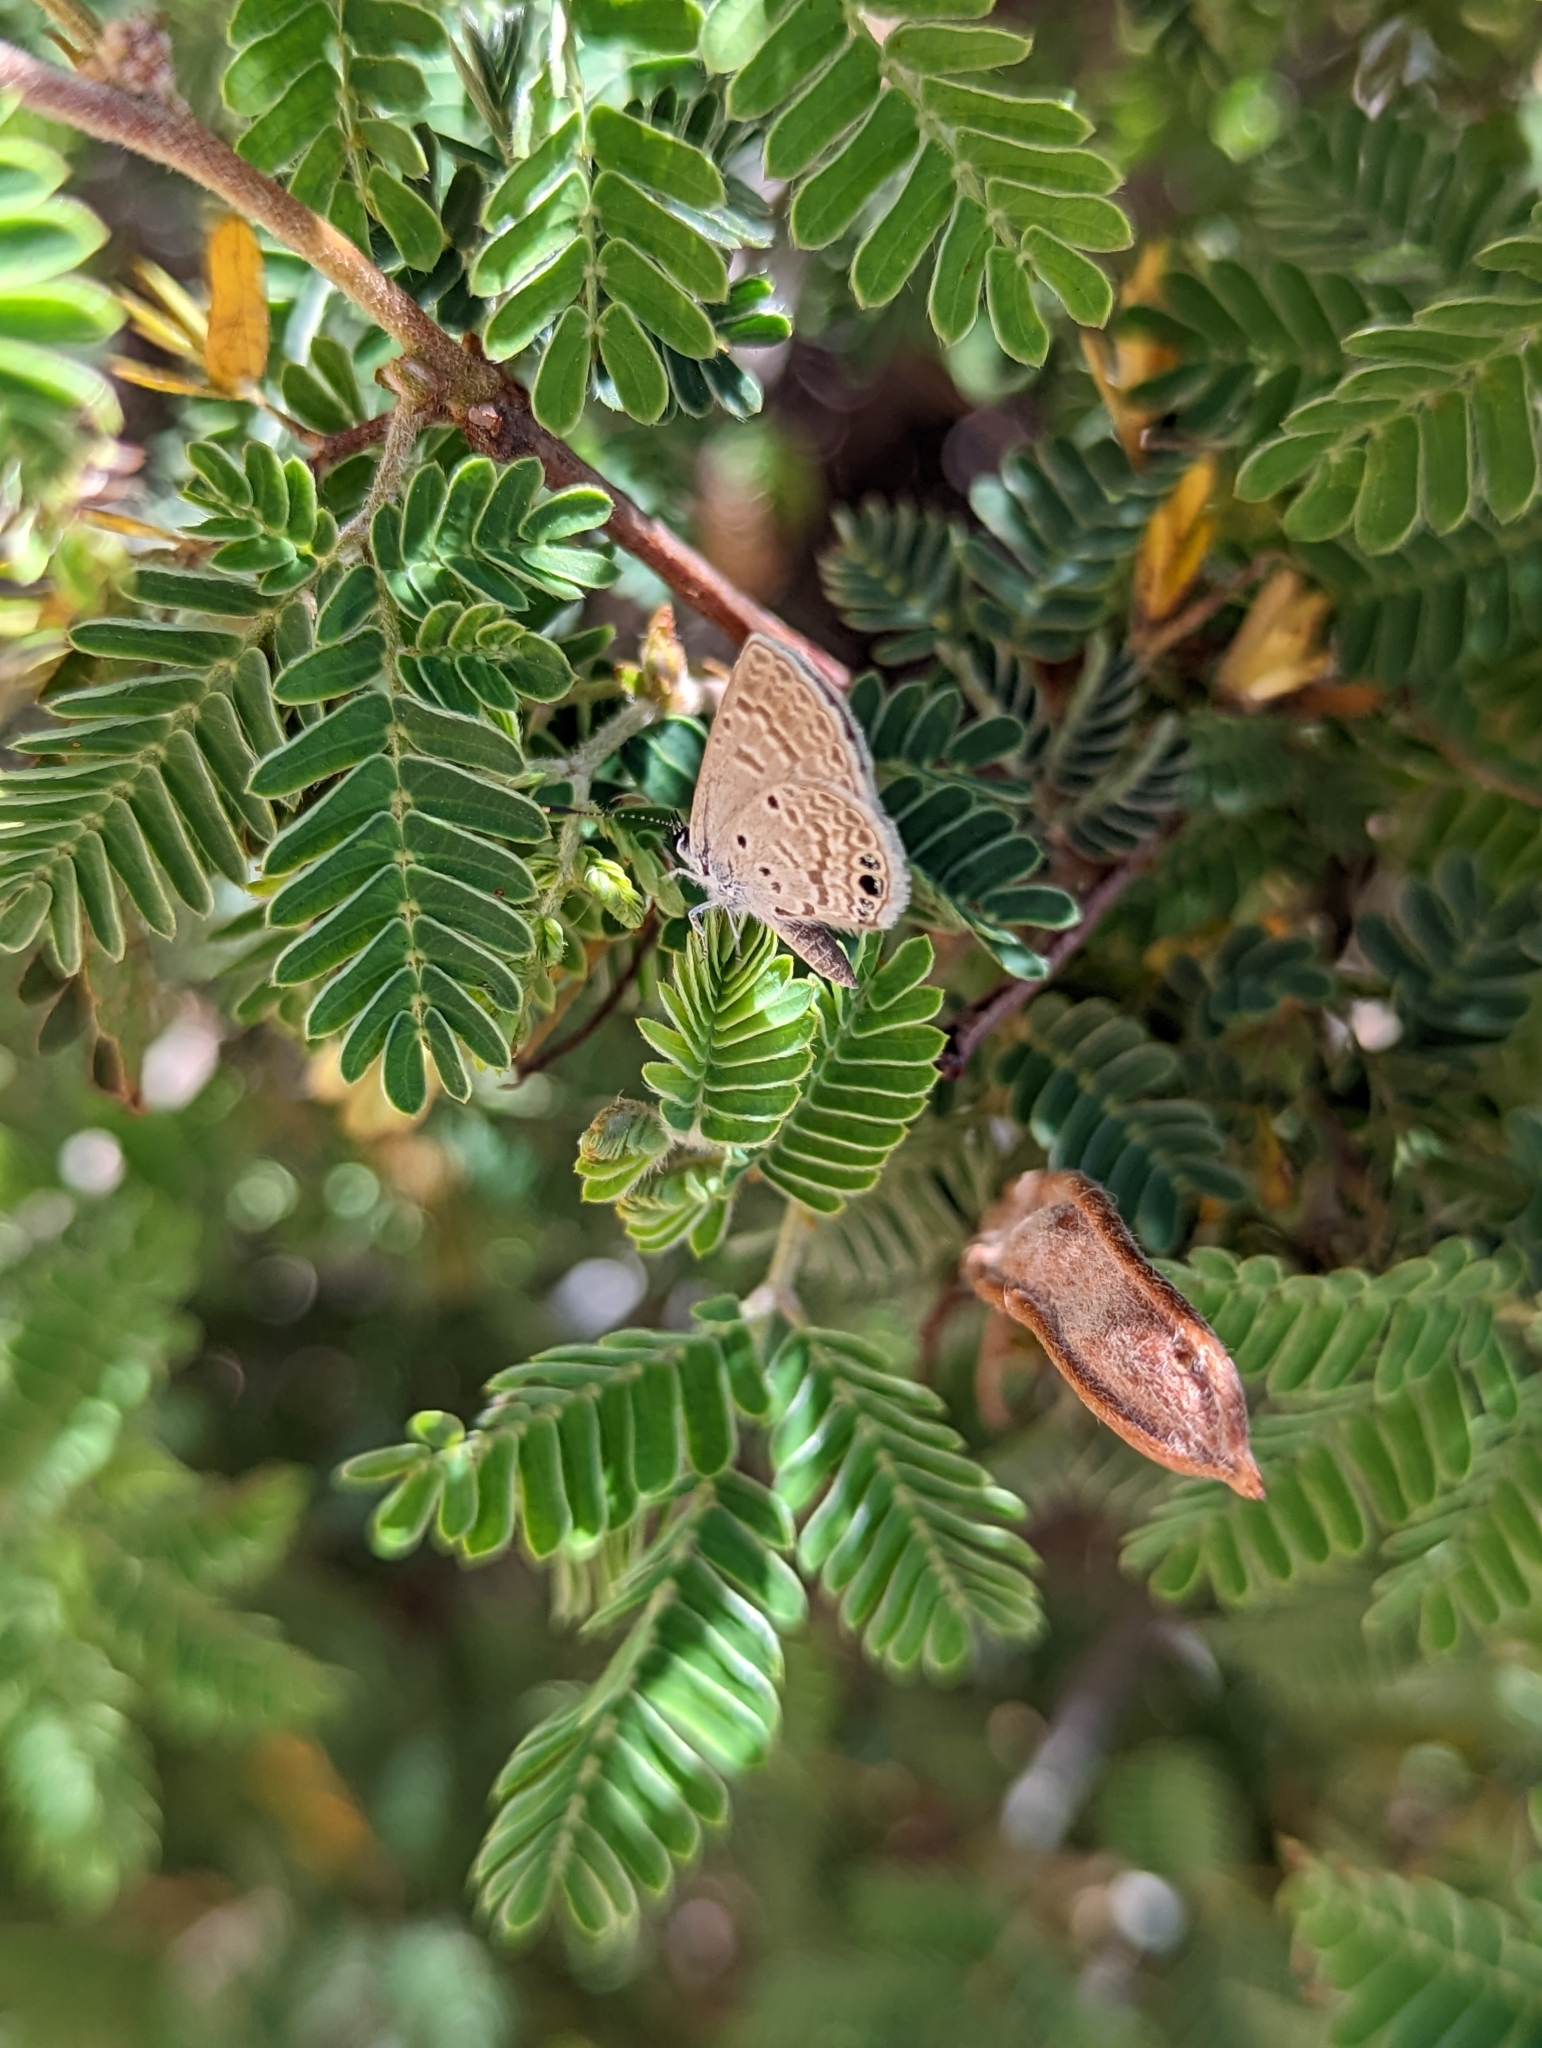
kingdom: Animalia
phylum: Arthropoda
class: Insecta
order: Lepidoptera
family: Lycaenidae
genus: Hemiargus
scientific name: Hemiargus ceraunus
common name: Ceraunus blue
